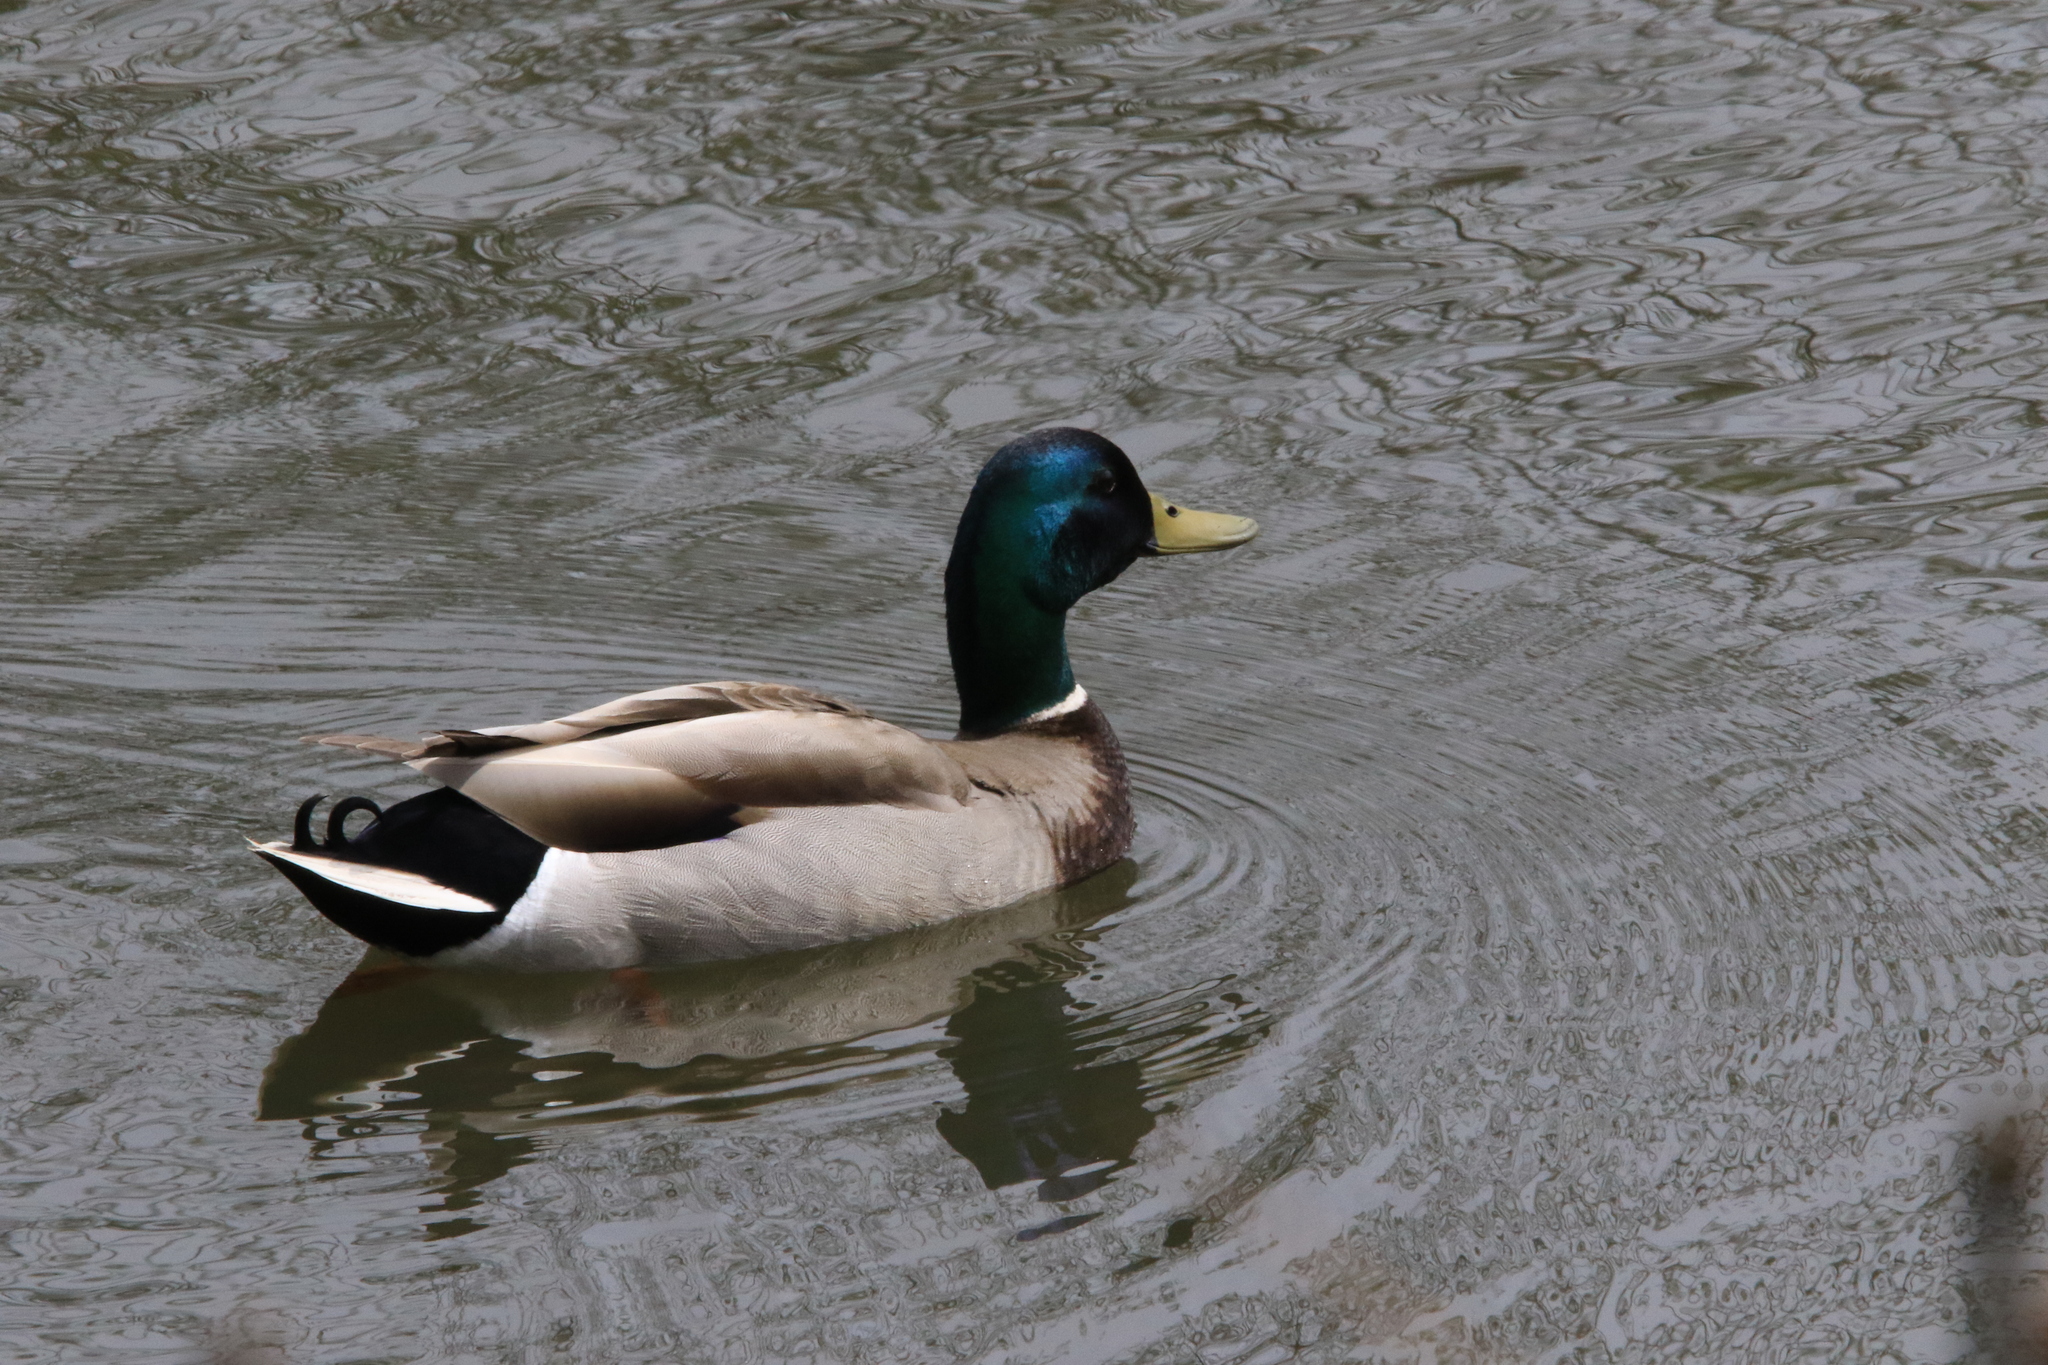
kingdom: Animalia
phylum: Chordata
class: Aves
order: Anseriformes
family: Anatidae
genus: Anas
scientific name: Anas platyrhynchos
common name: Mallard
